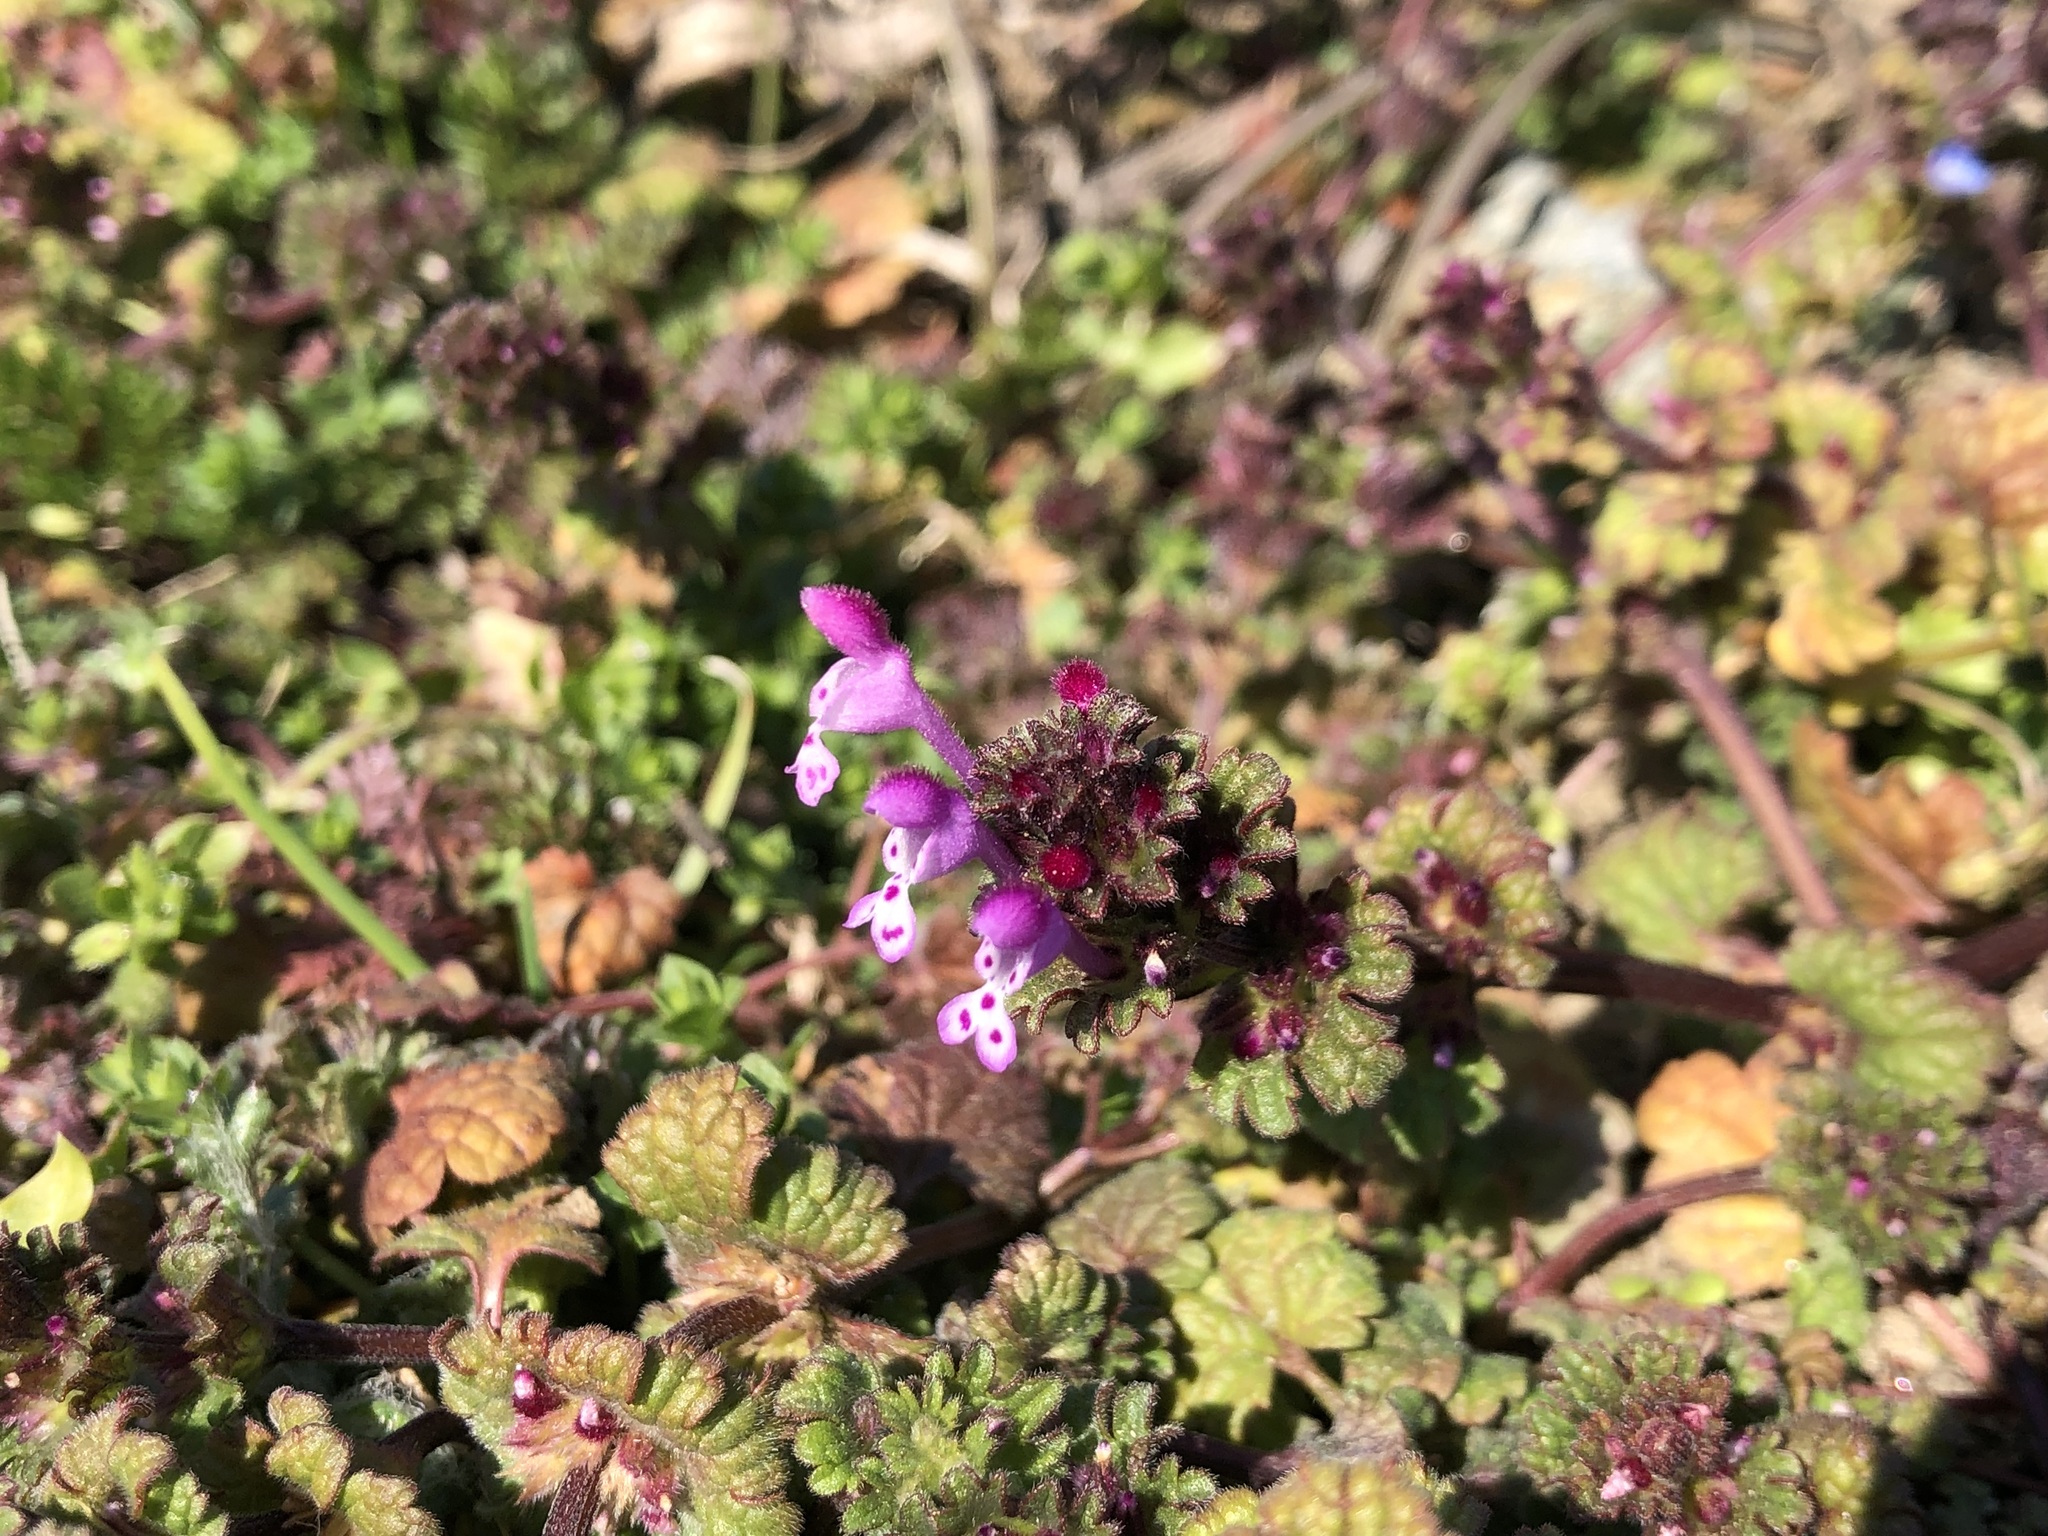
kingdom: Plantae
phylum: Tracheophyta
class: Magnoliopsida
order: Lamiales
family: Lamiaceae
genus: Lamium
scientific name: Lamium amplexicaule
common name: Henbit dead-nettle
